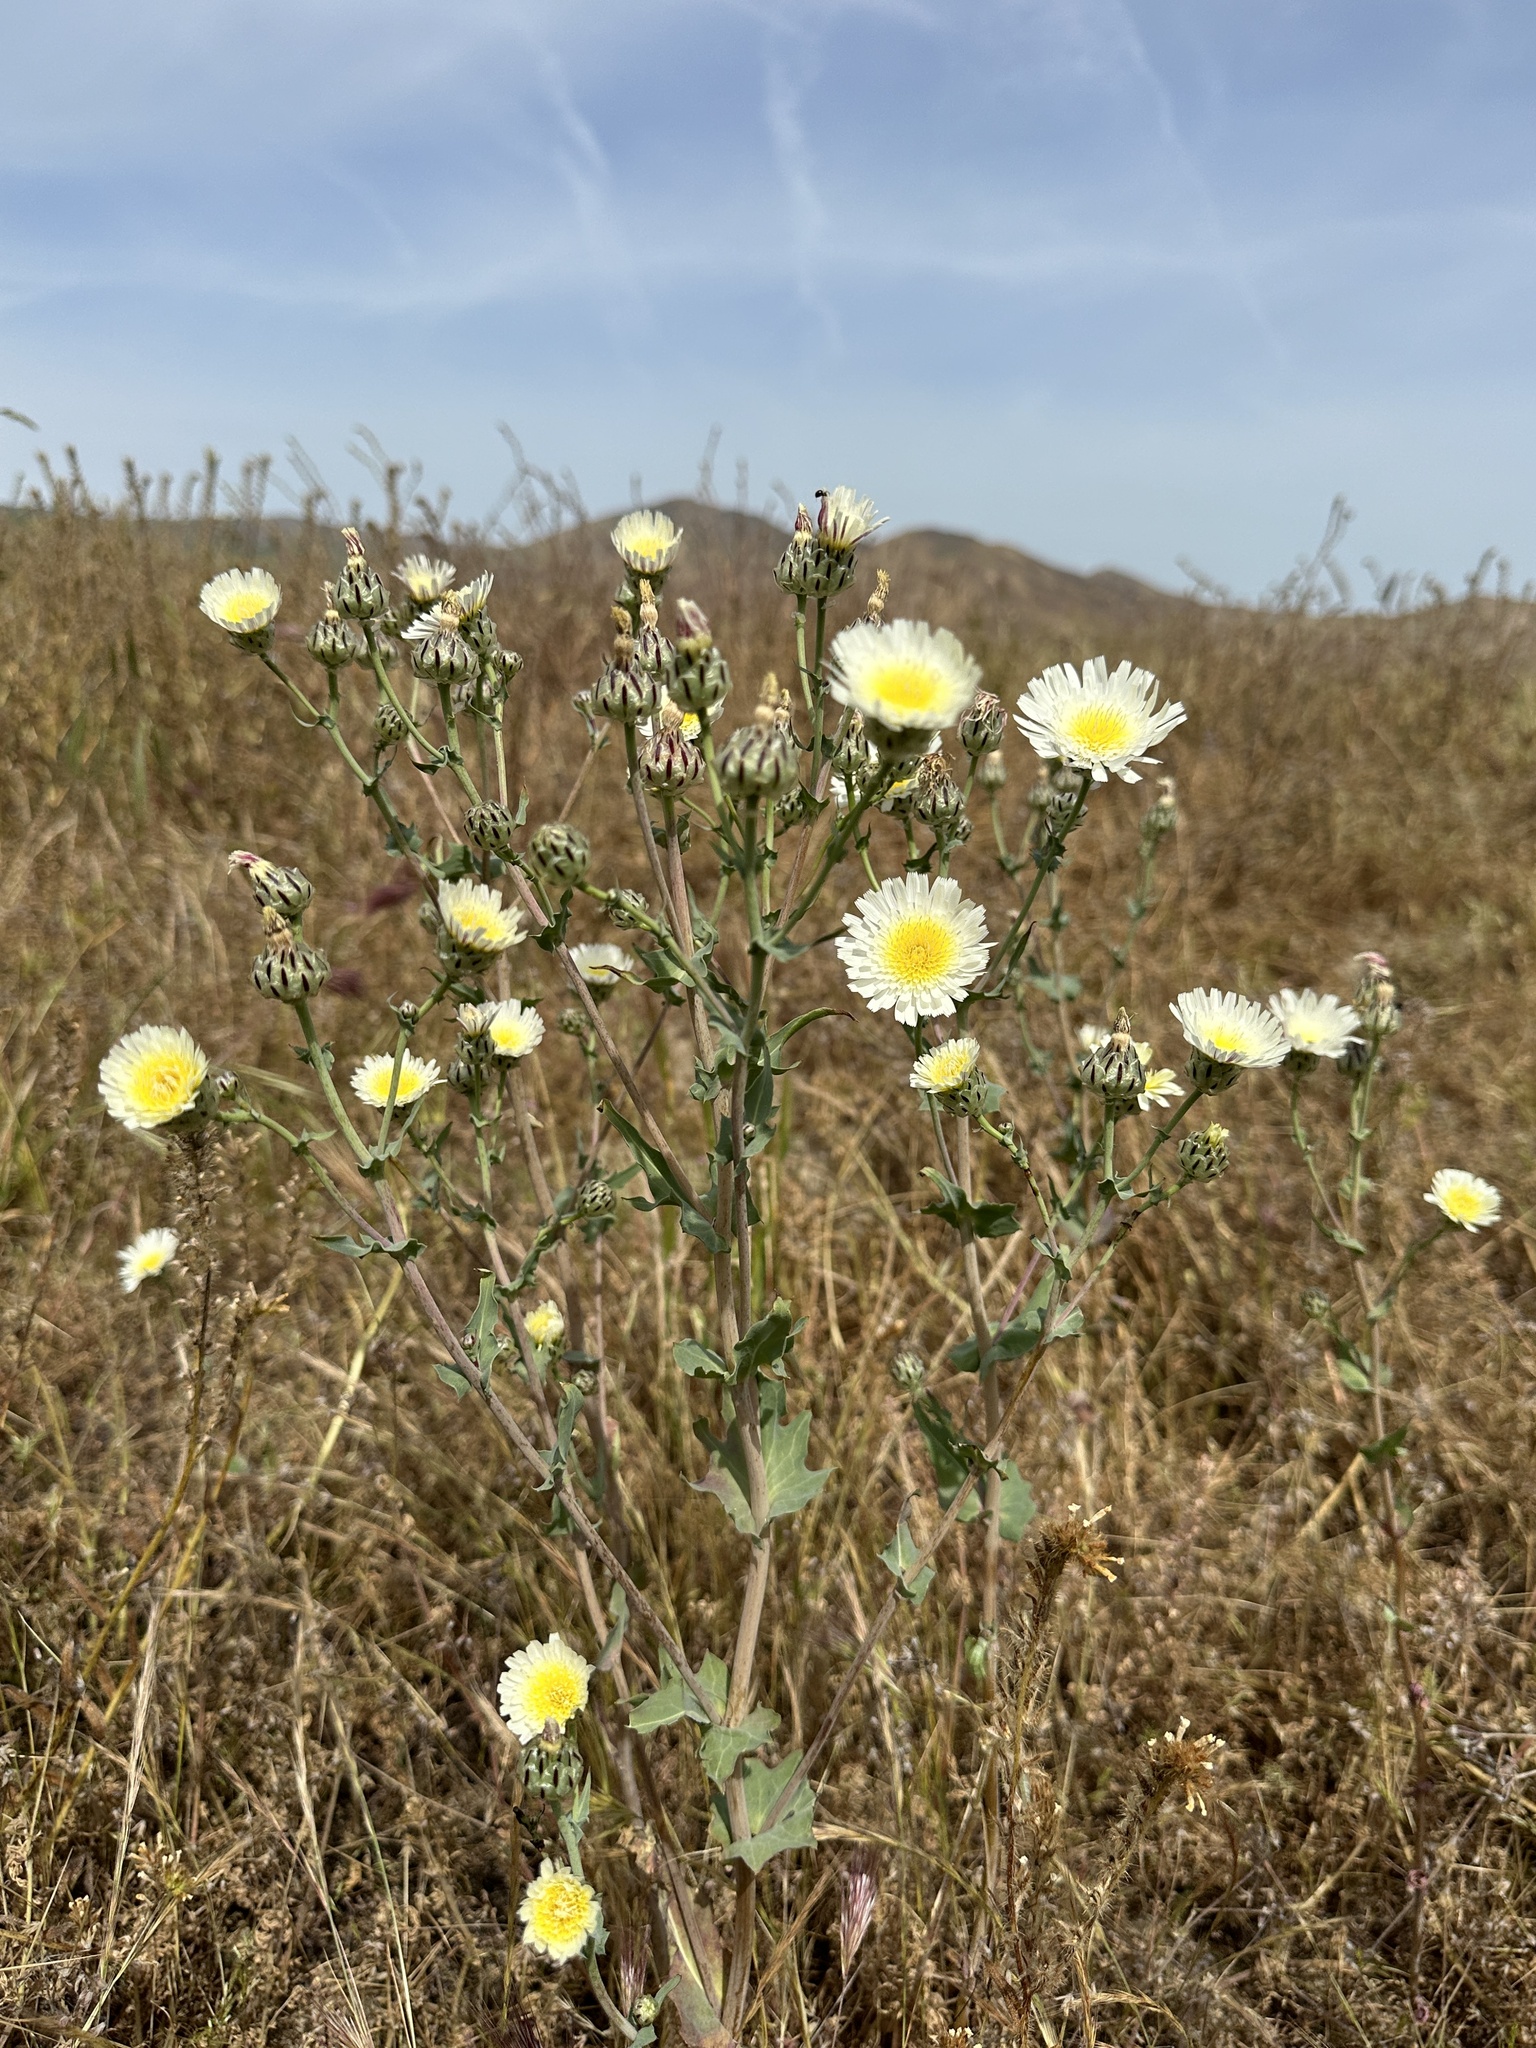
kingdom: Plantae
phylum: Tracheophyta
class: Magnoliopsida
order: Asterales
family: Asteraceae
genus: Malacothrix
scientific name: Malacothrix coulteri
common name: Snake's-head
